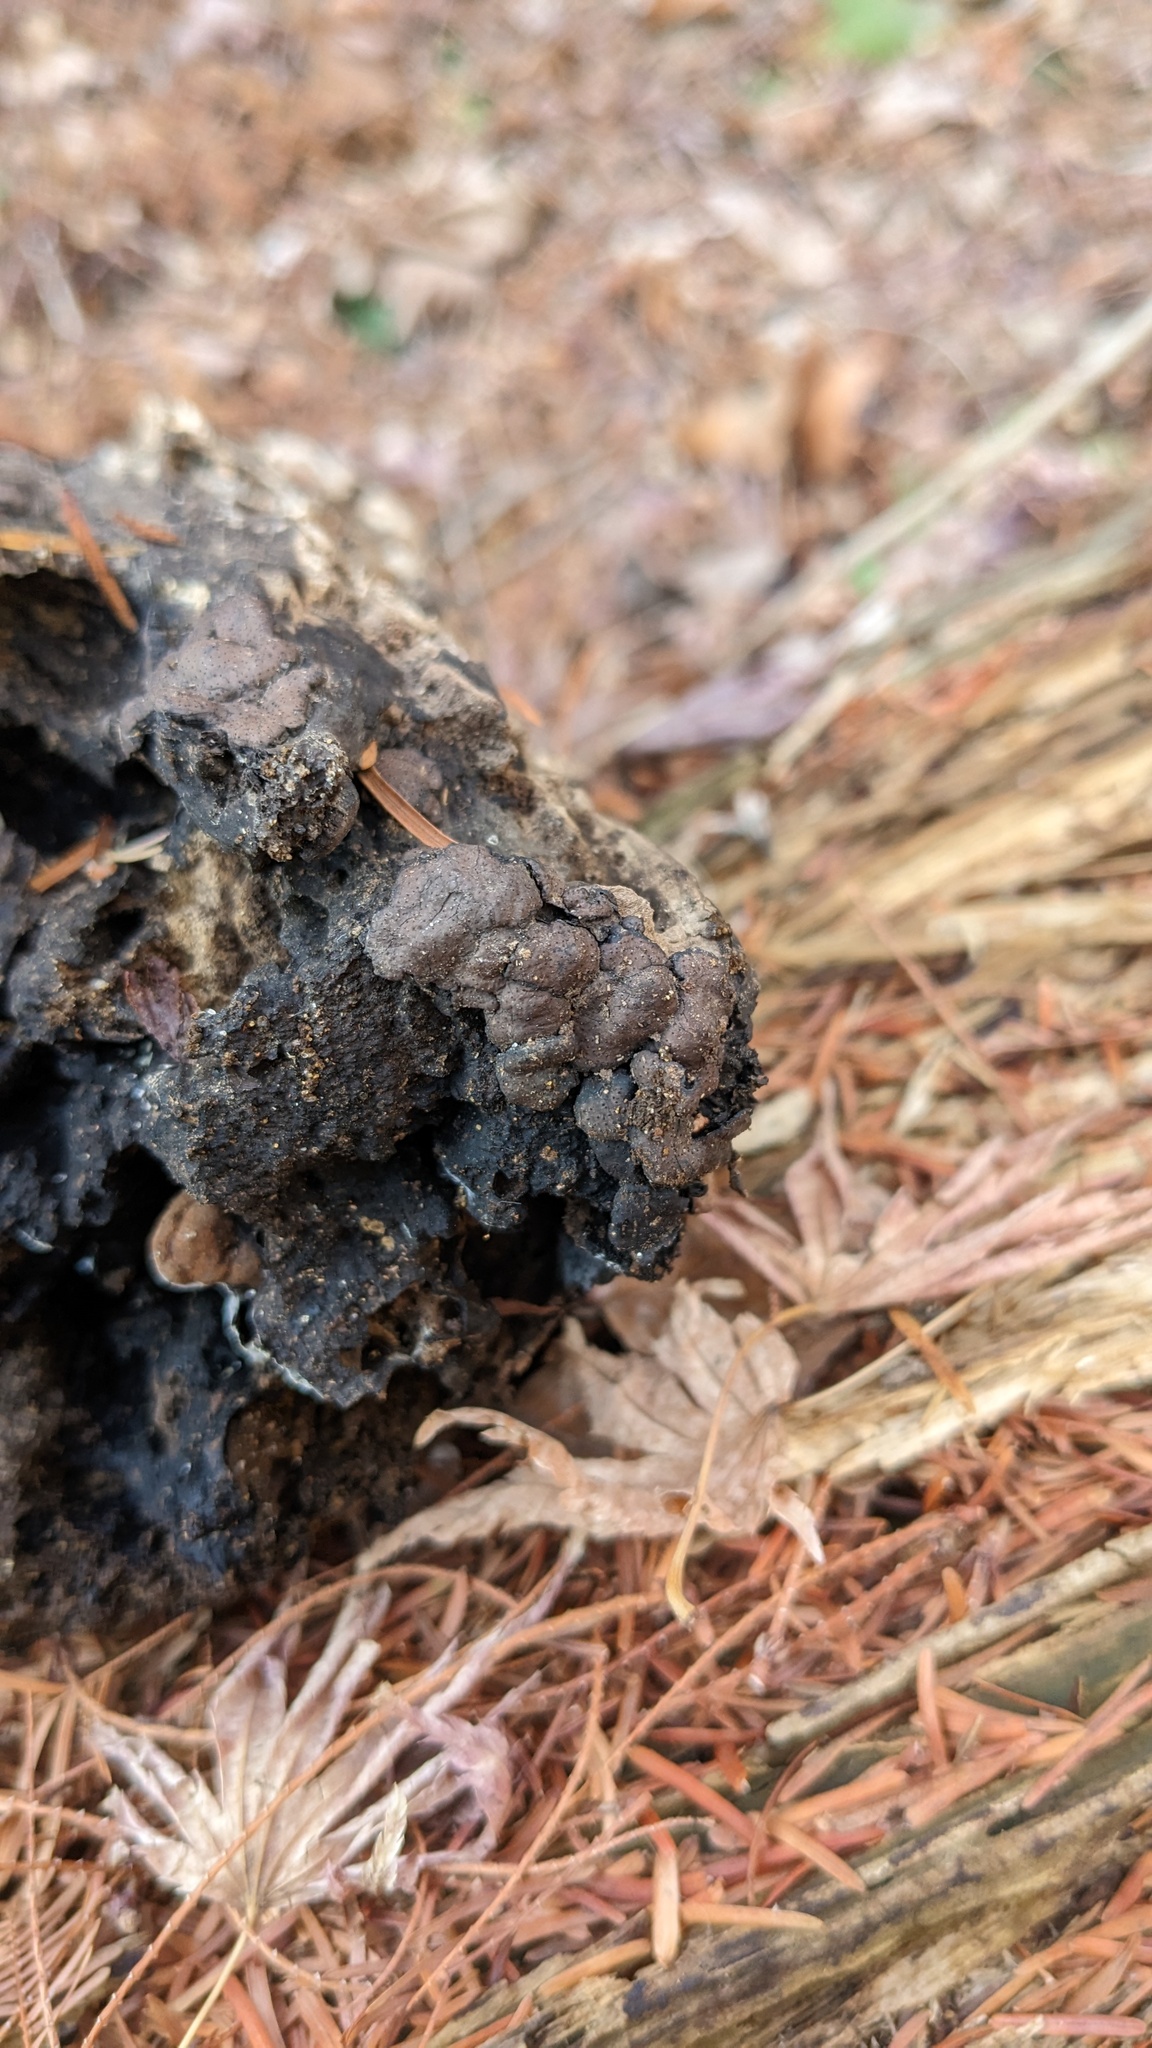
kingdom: Fungi
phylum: Ascomycota
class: Sordariomycetes
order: Xylariales
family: Xylariaceae
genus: Kretzschmaria
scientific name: Kretzschmaria deusta
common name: Brittle cinder
